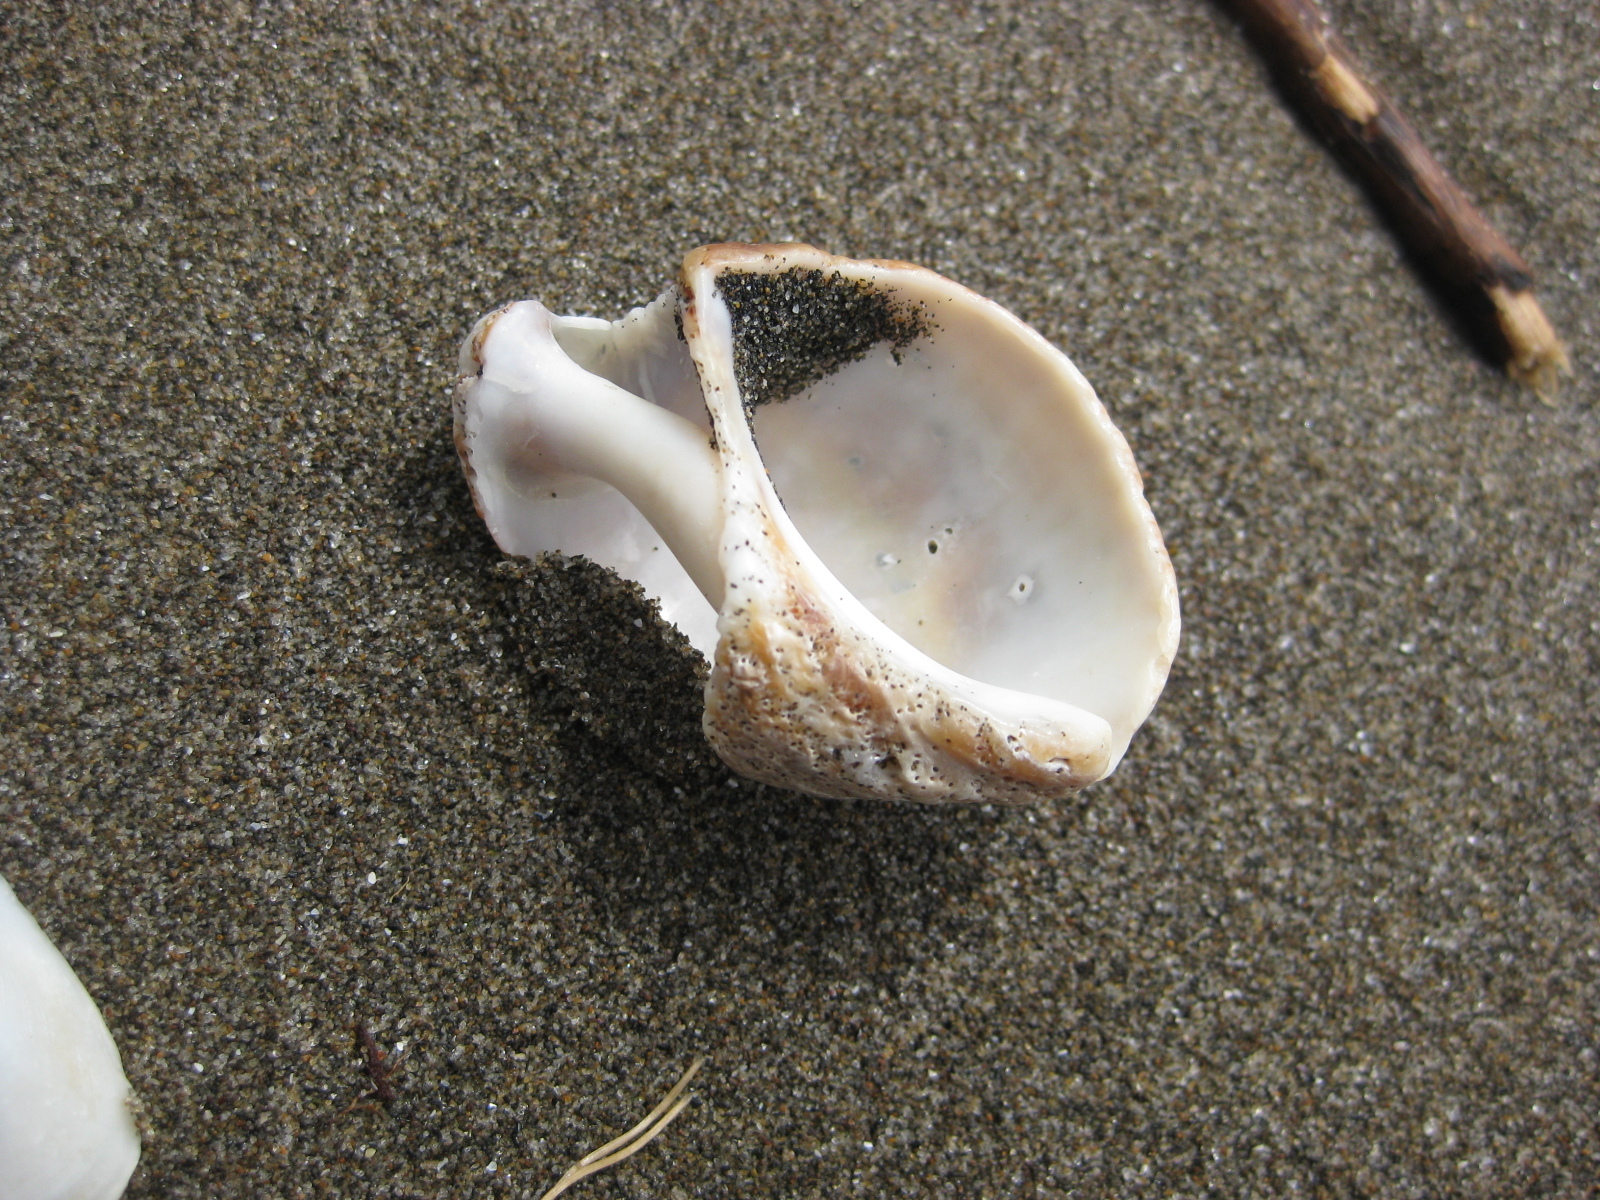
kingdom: Animalia
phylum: Mollusca
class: Gastropoda
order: Neogastropoda
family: Muricidae
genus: Dicathais
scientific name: Dicathais orbita
